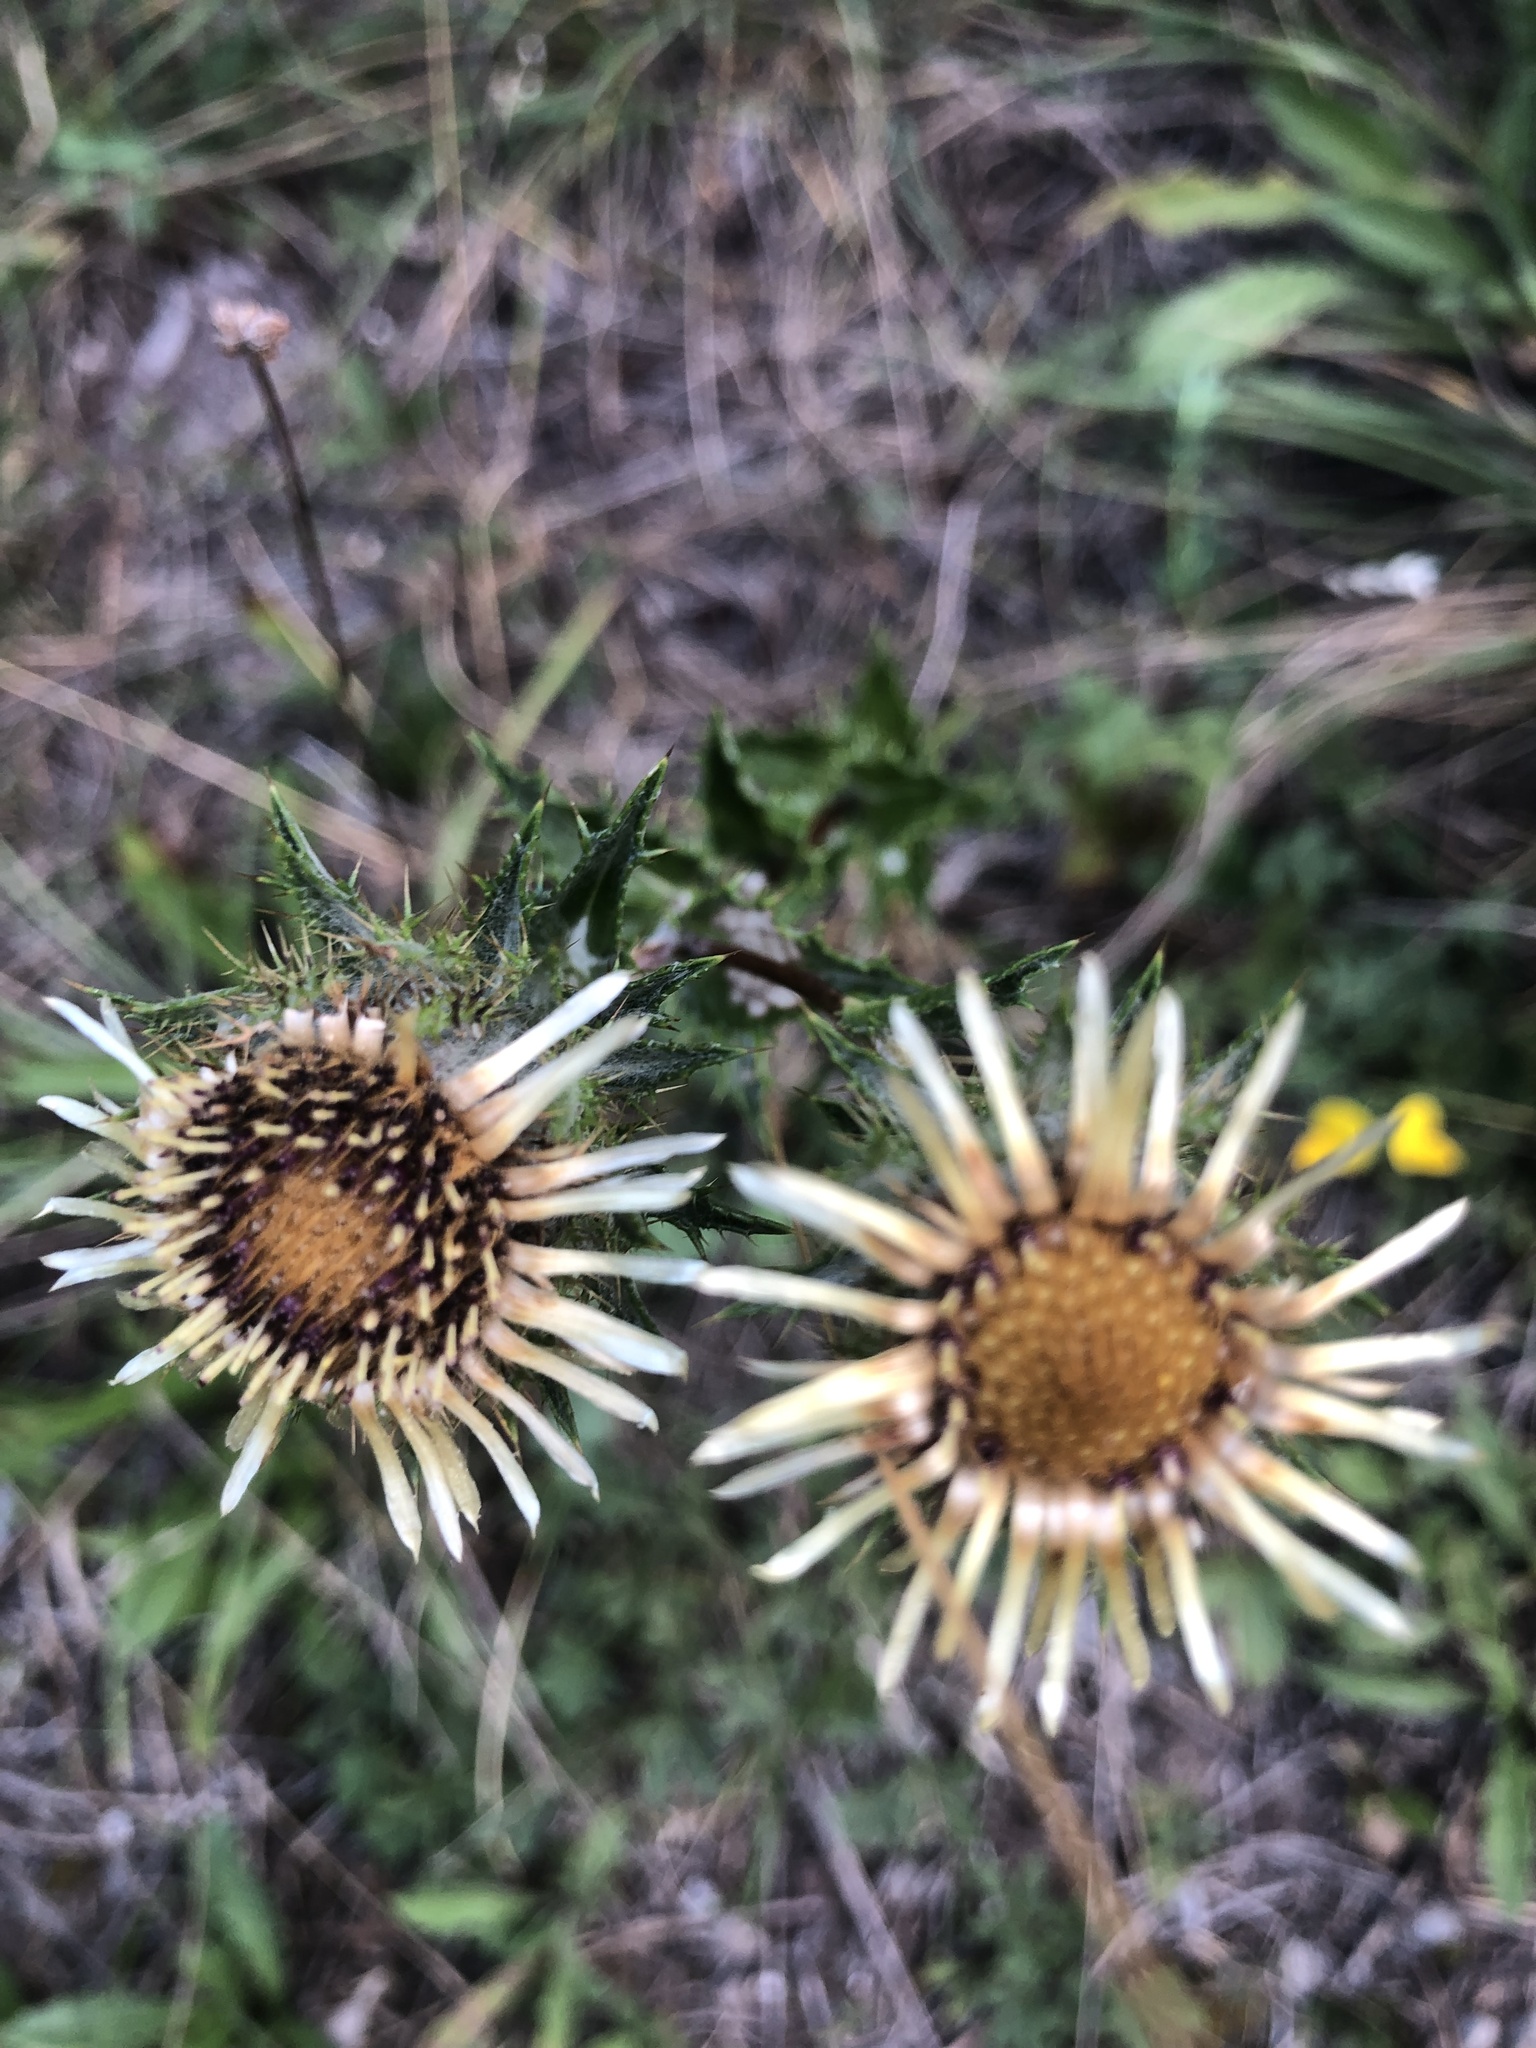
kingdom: Plantae
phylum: Tracheophyta
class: Magnoliopsida
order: Asterales
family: Asteraceae
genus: Carlina
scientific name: Carlina vulgaris
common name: Carline thistle
